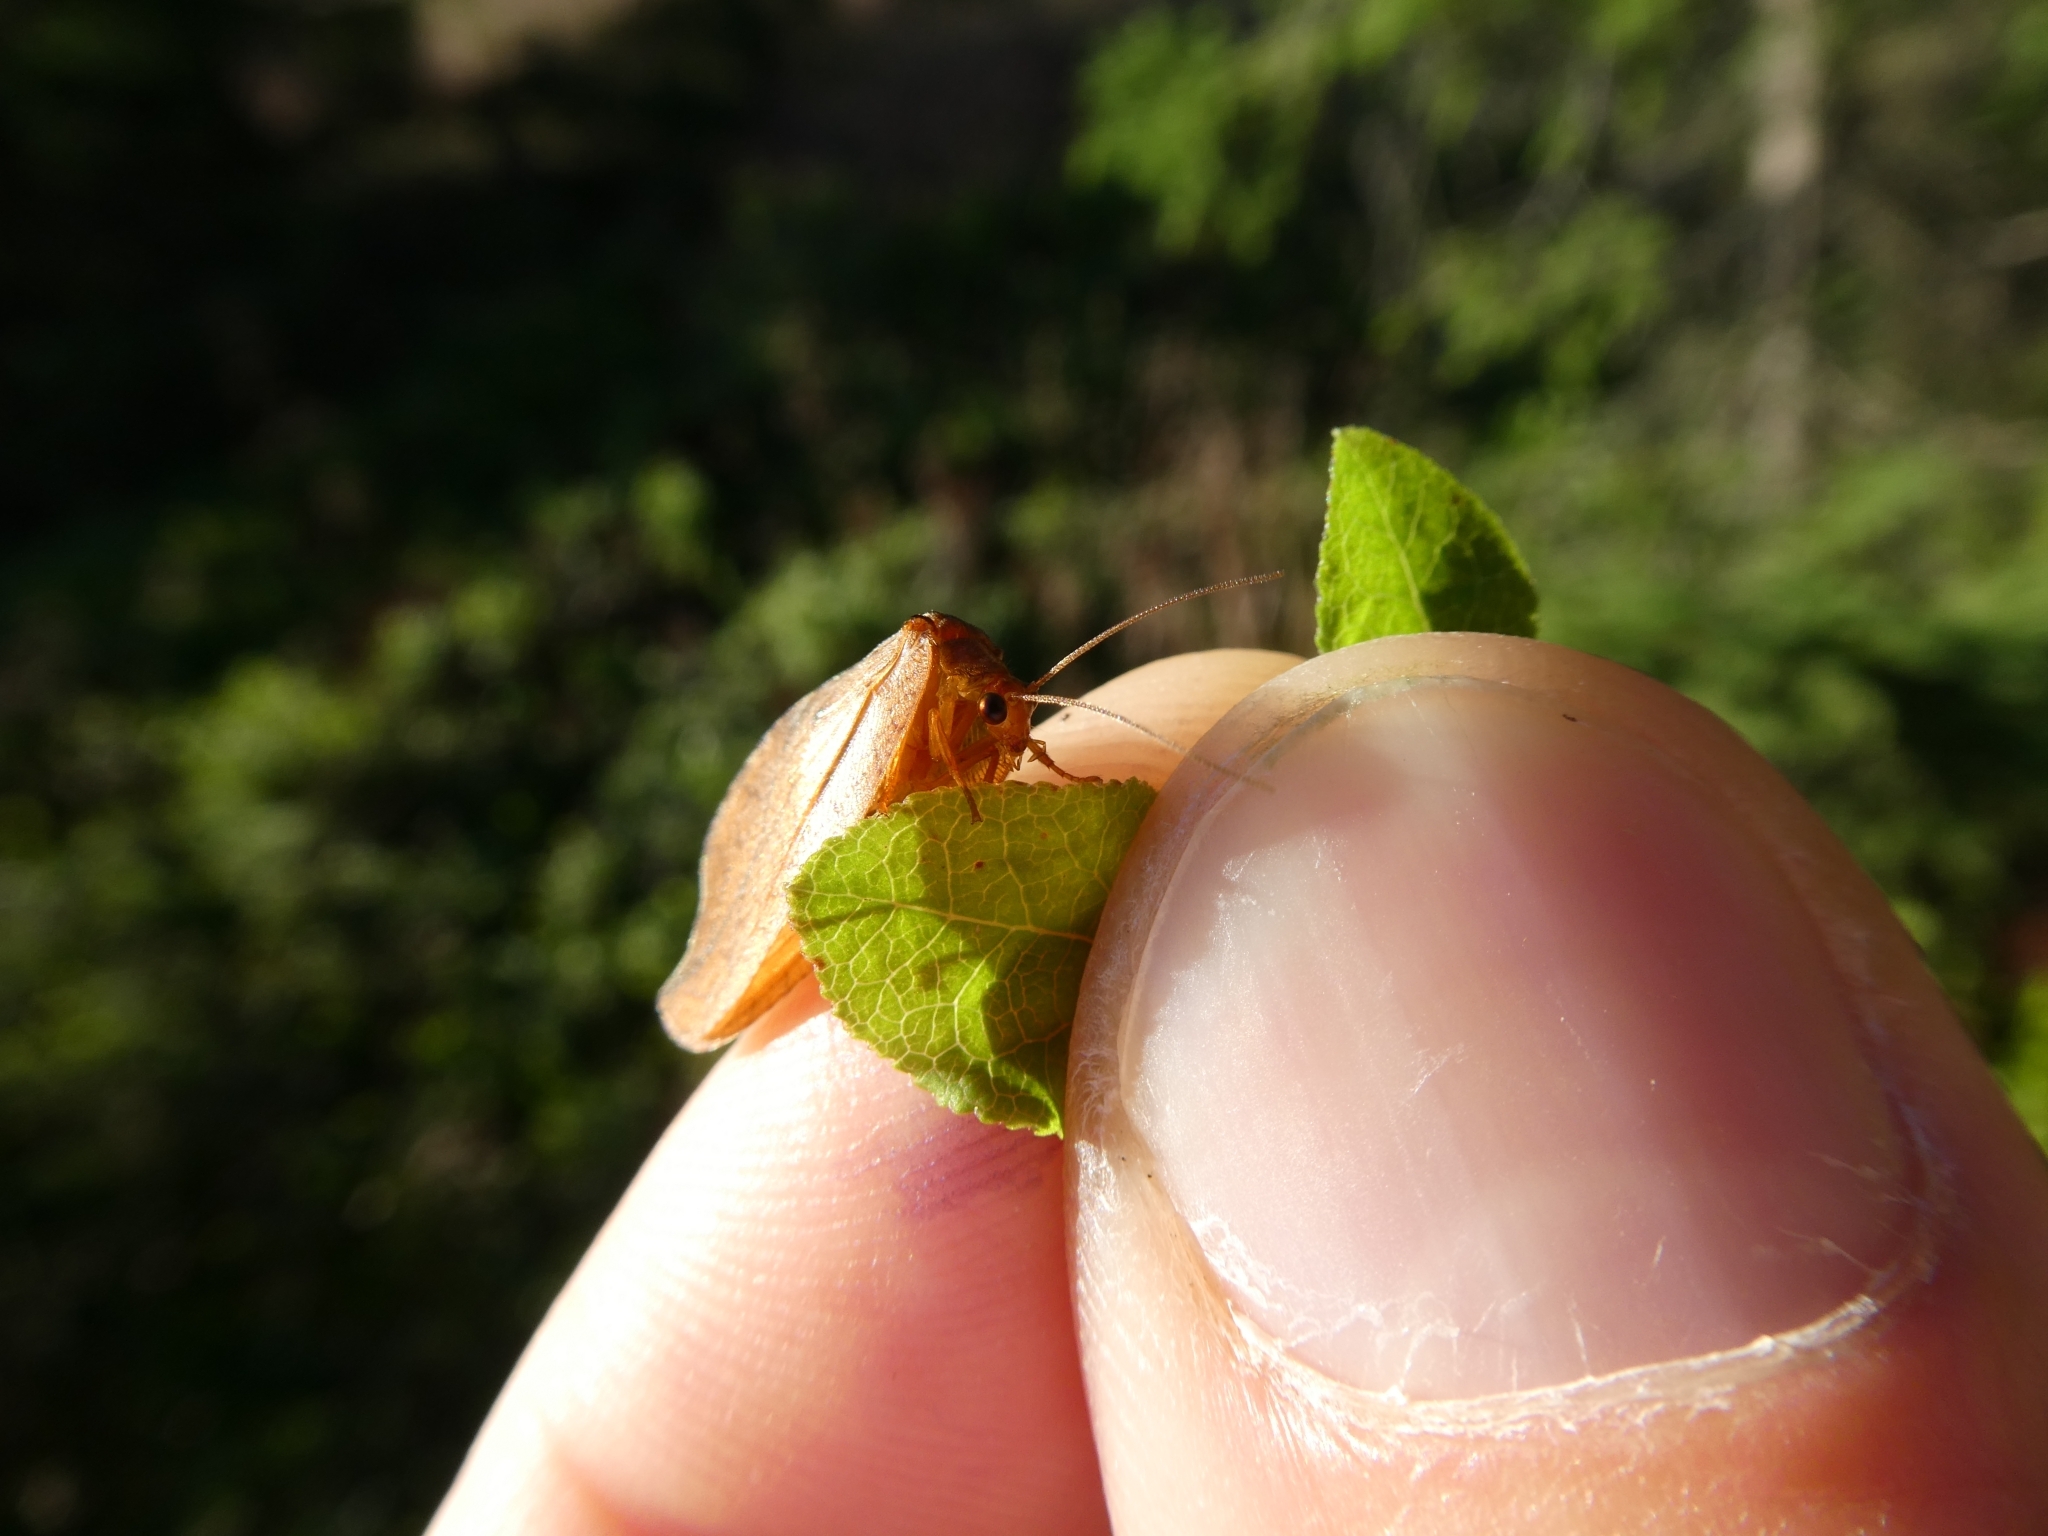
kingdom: Animalia
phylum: Arthropoda
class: Insecta
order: Neuroptera
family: Hemerobiidae
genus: Drepanepteryx
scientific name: Drepanepteryx phalaenoides
